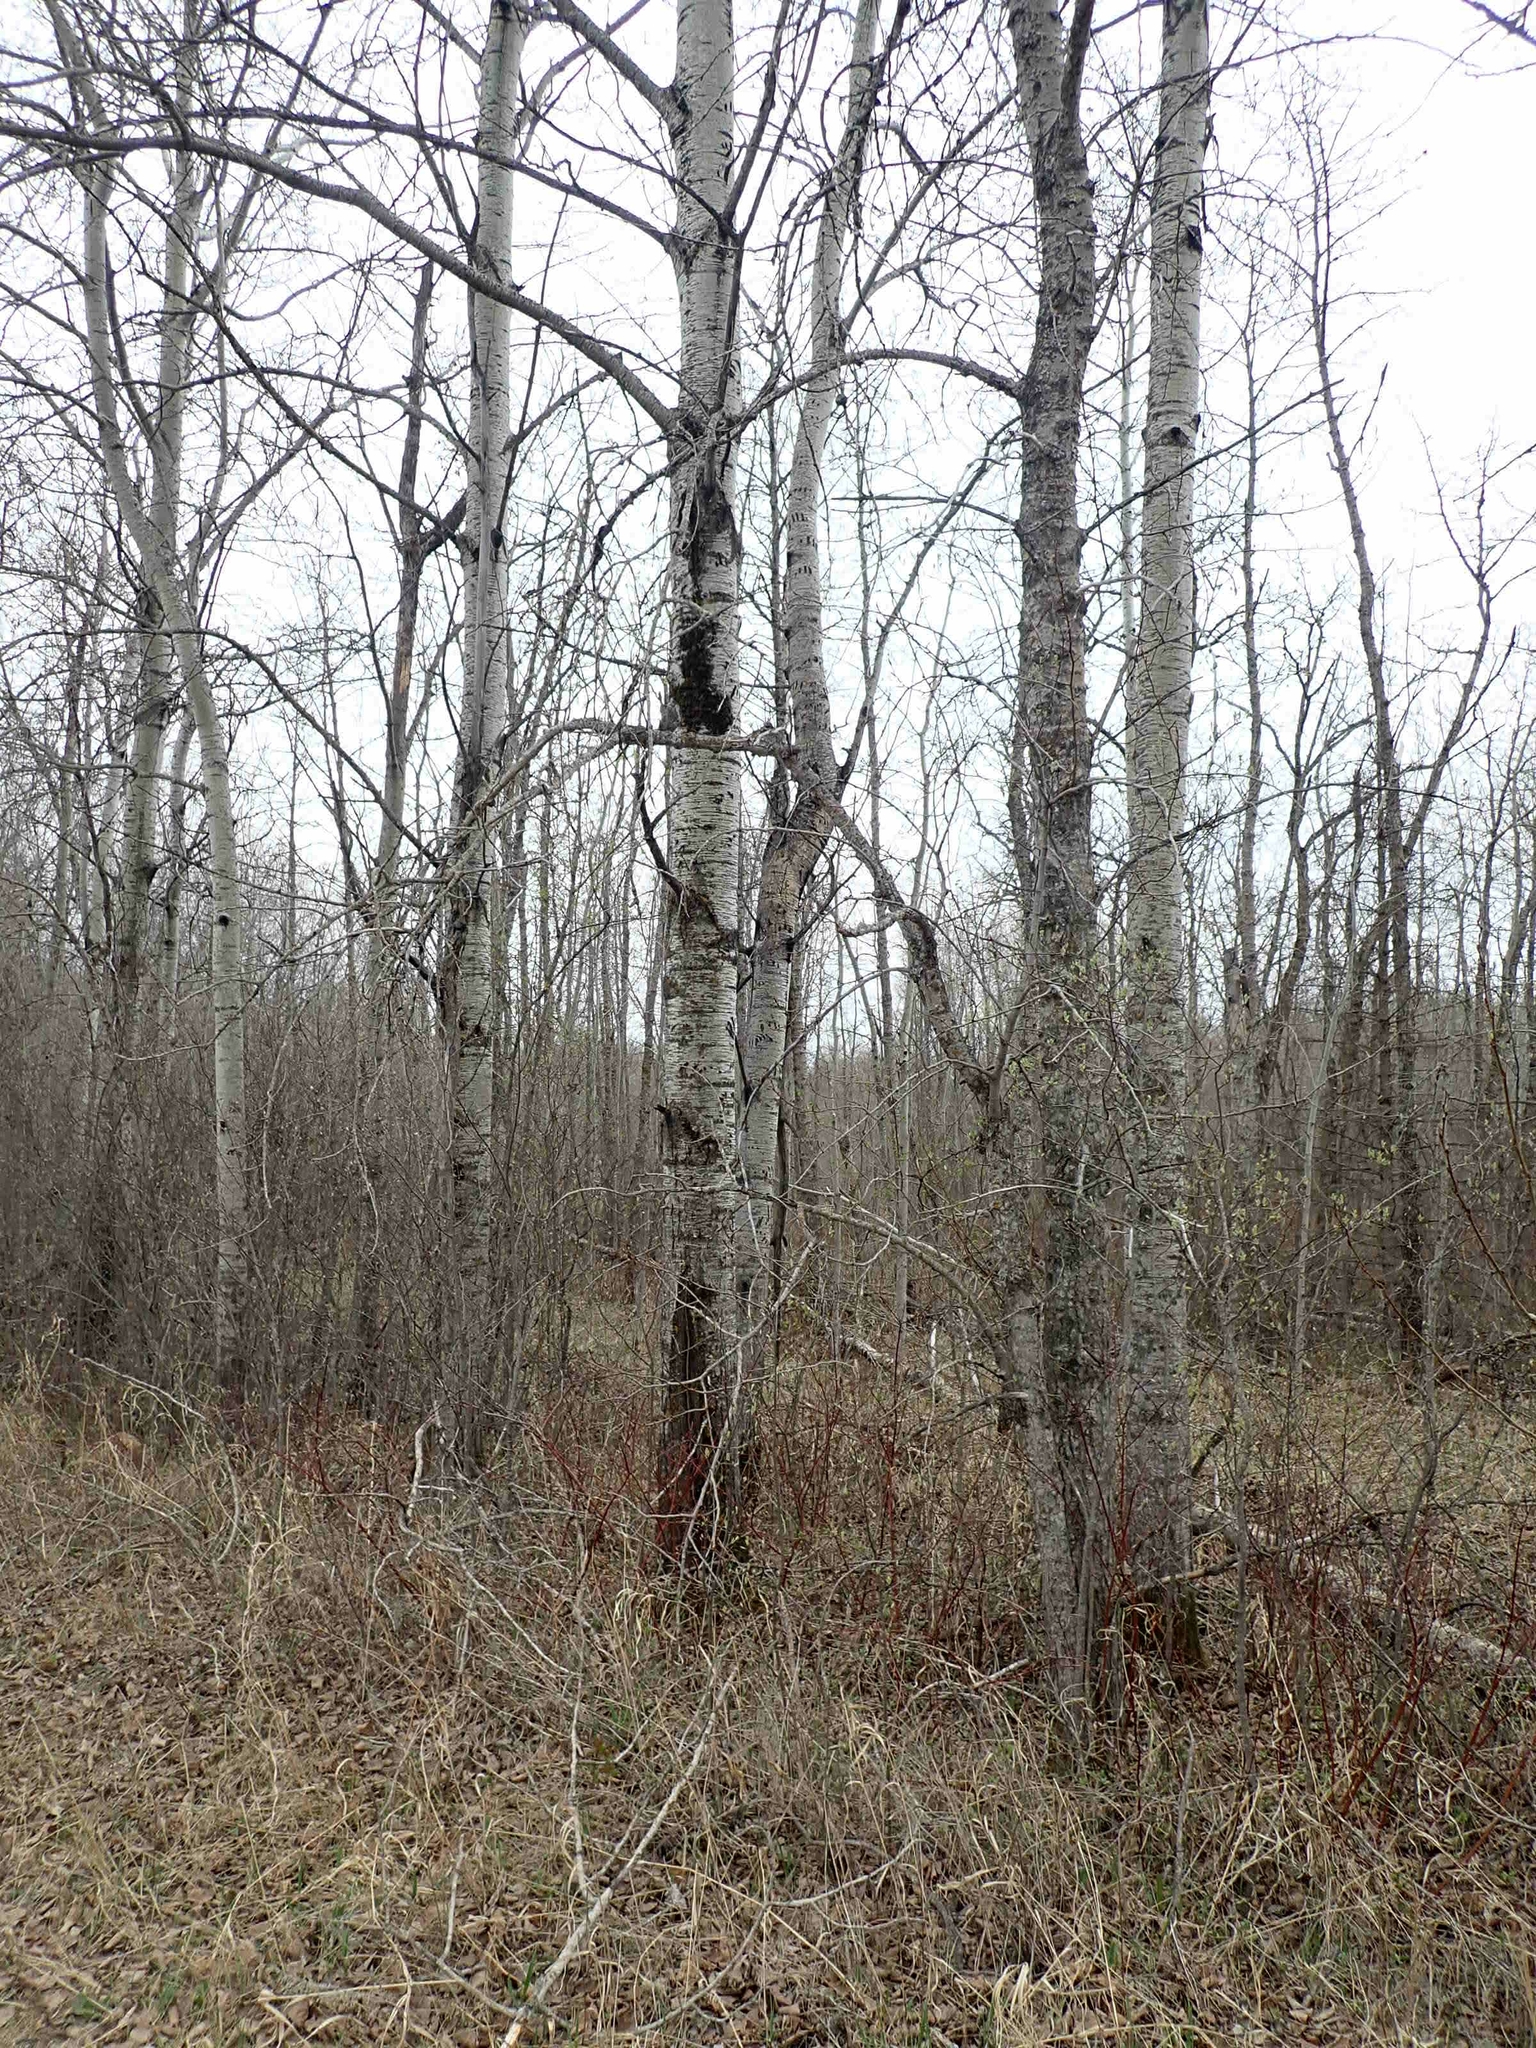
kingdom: Plantae
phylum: Tracheophyta
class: Magnoliopsida
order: Malpighiales
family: Salicaceae
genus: Populus
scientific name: Populus tremuloides
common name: Quaking aspen
